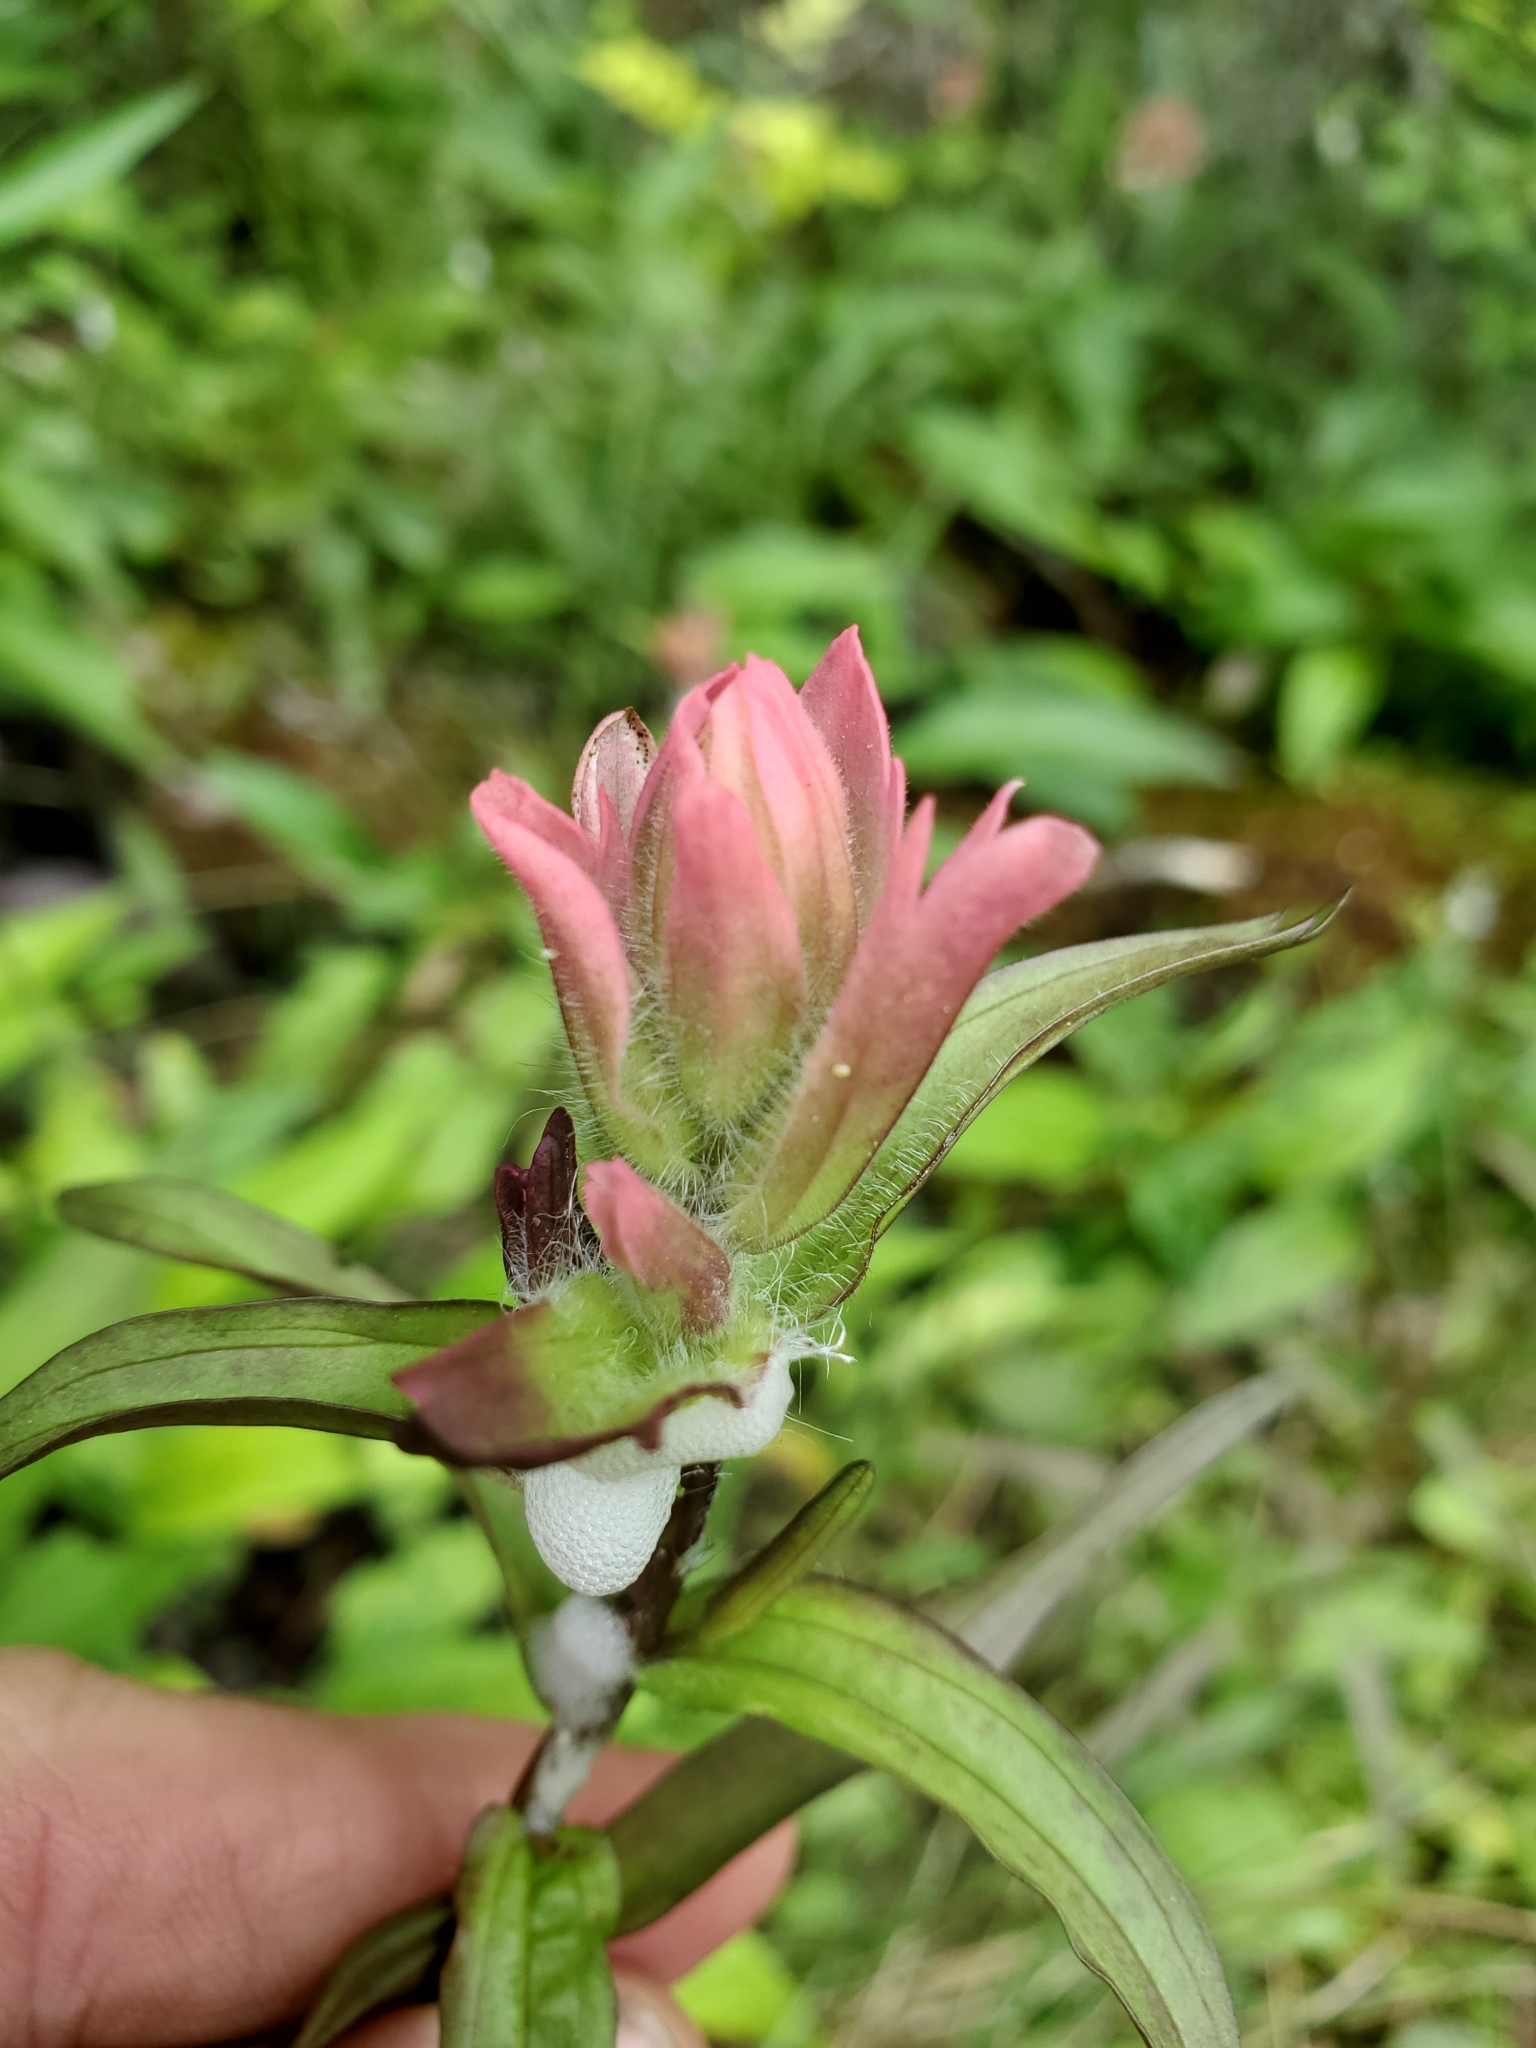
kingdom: Plantae
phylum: Tracheophyta
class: Magnoliopsida
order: Lamiales
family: Orobanchaceae
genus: Castilleja
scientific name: Castilleja miniata
